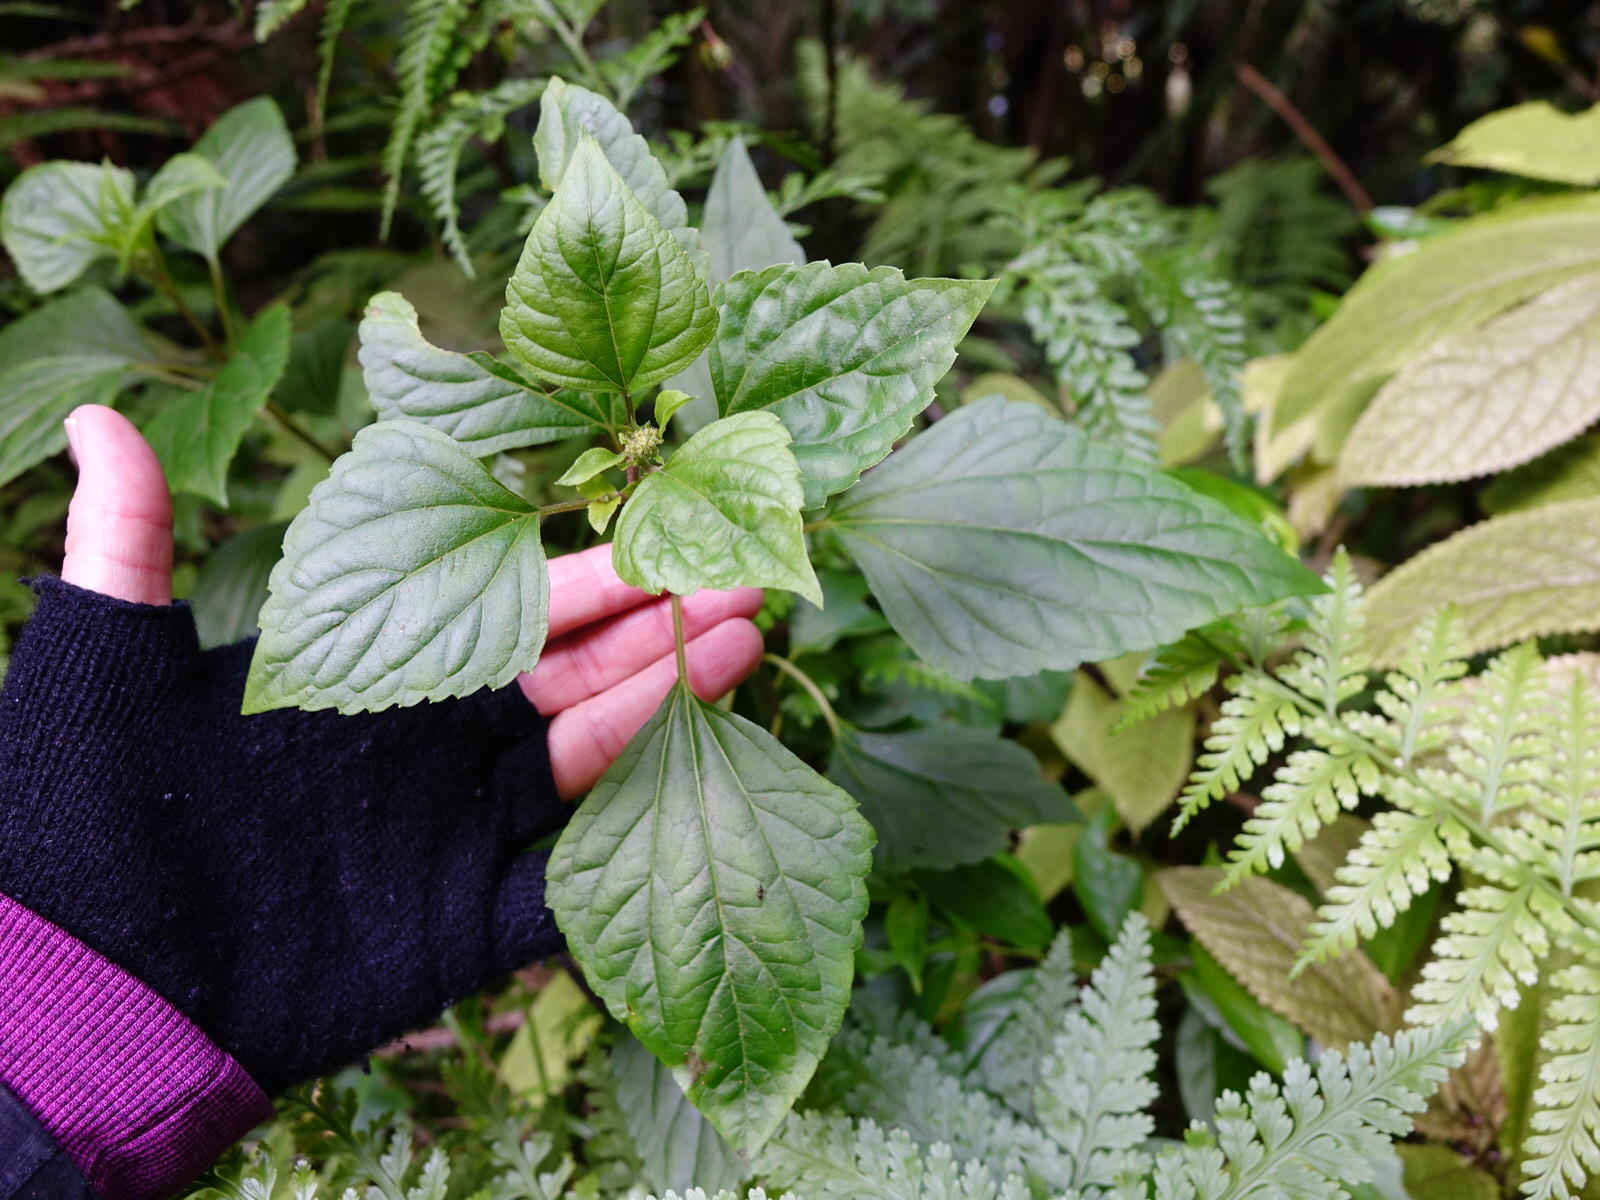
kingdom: Plantae
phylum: Tracheophyta
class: Magnoliopsida
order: Asterales
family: Asteraceae
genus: Ageratina
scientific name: Ageratina adenophora
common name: Sticky snakeroot
